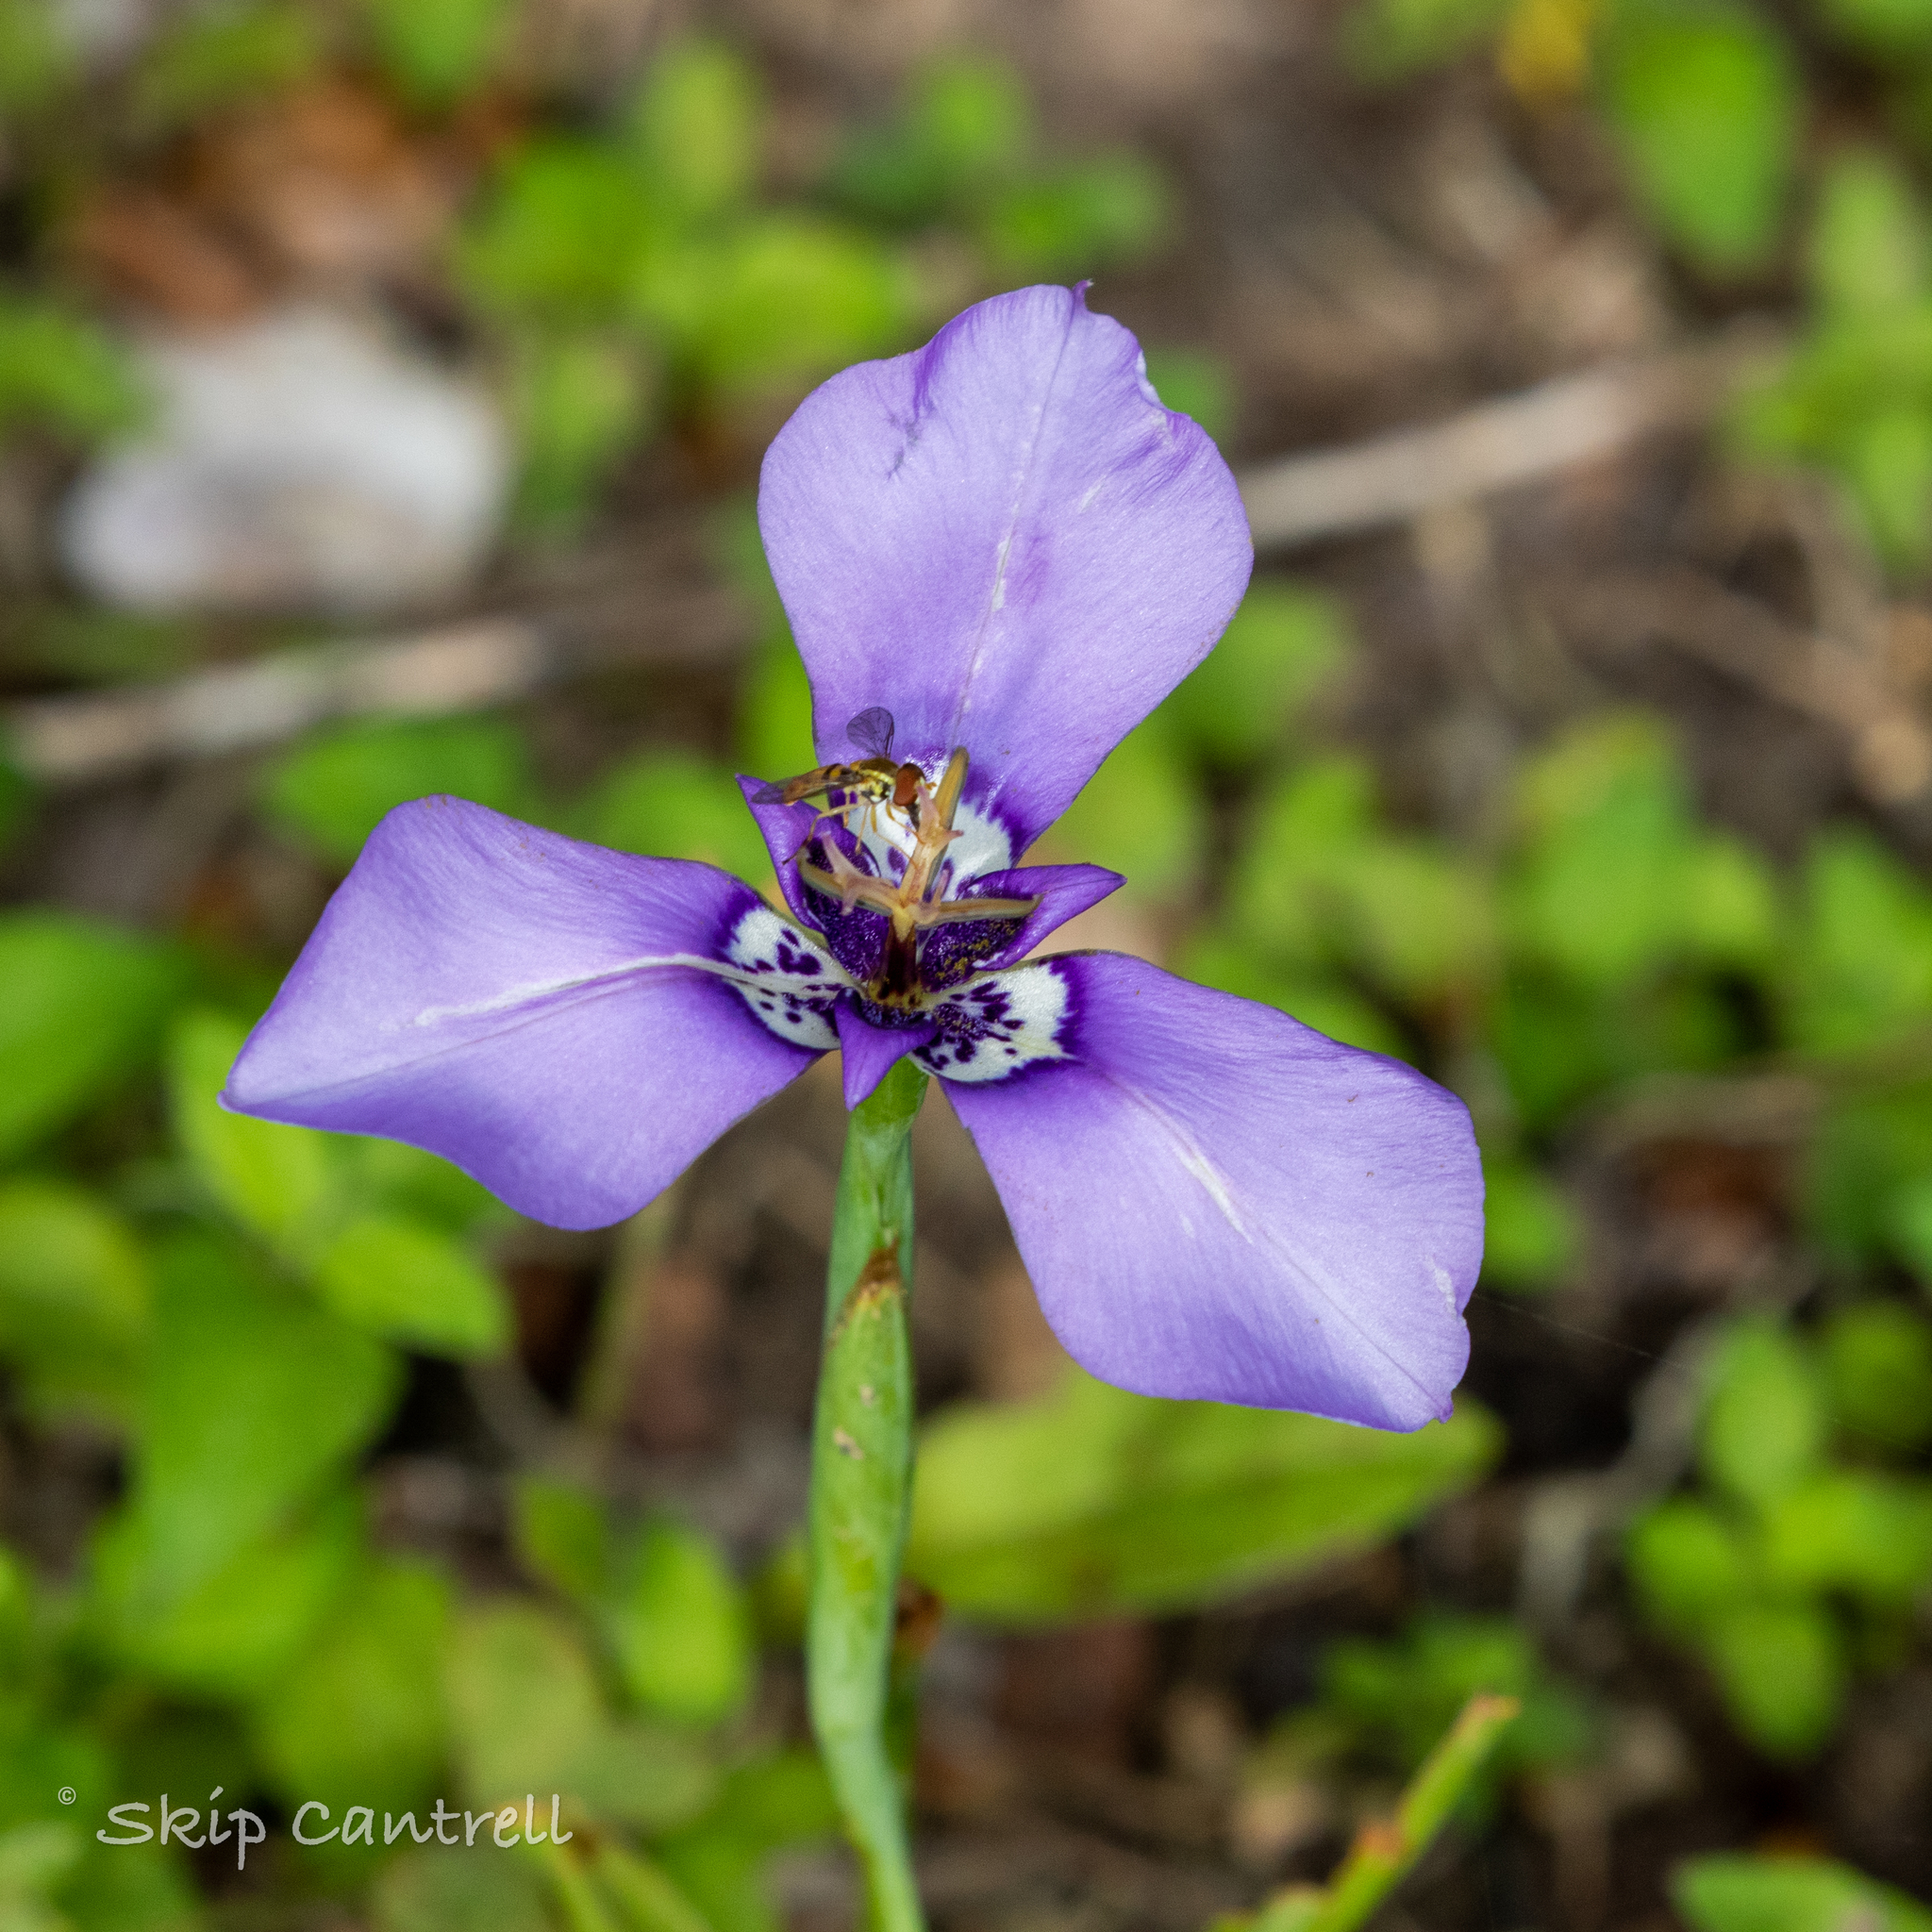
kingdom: Plantae
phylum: Tracheophyta
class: Liliopsida
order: Asparagales
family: Iridaceae
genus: Herbertia
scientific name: Herbertia lahue
